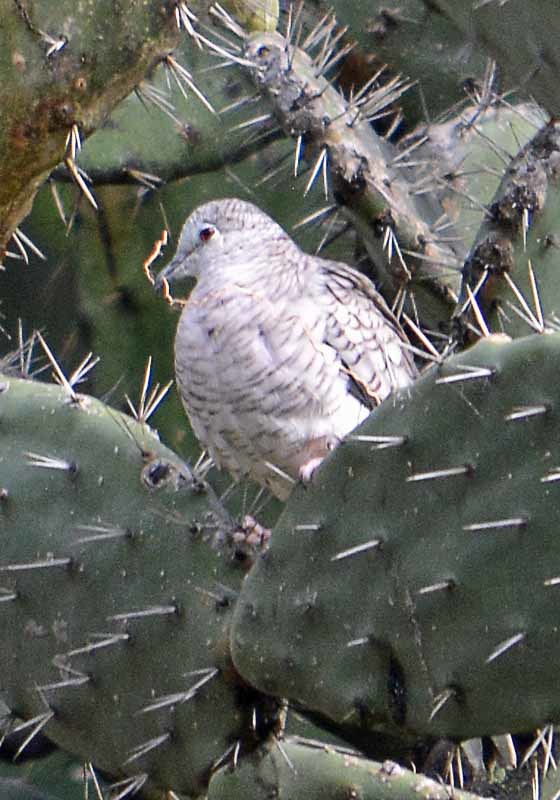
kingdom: Animalia
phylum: Chordata
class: Aves
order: Columbiformes
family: Columbidae
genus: Columbina
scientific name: Columbina inca
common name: Inca dove
